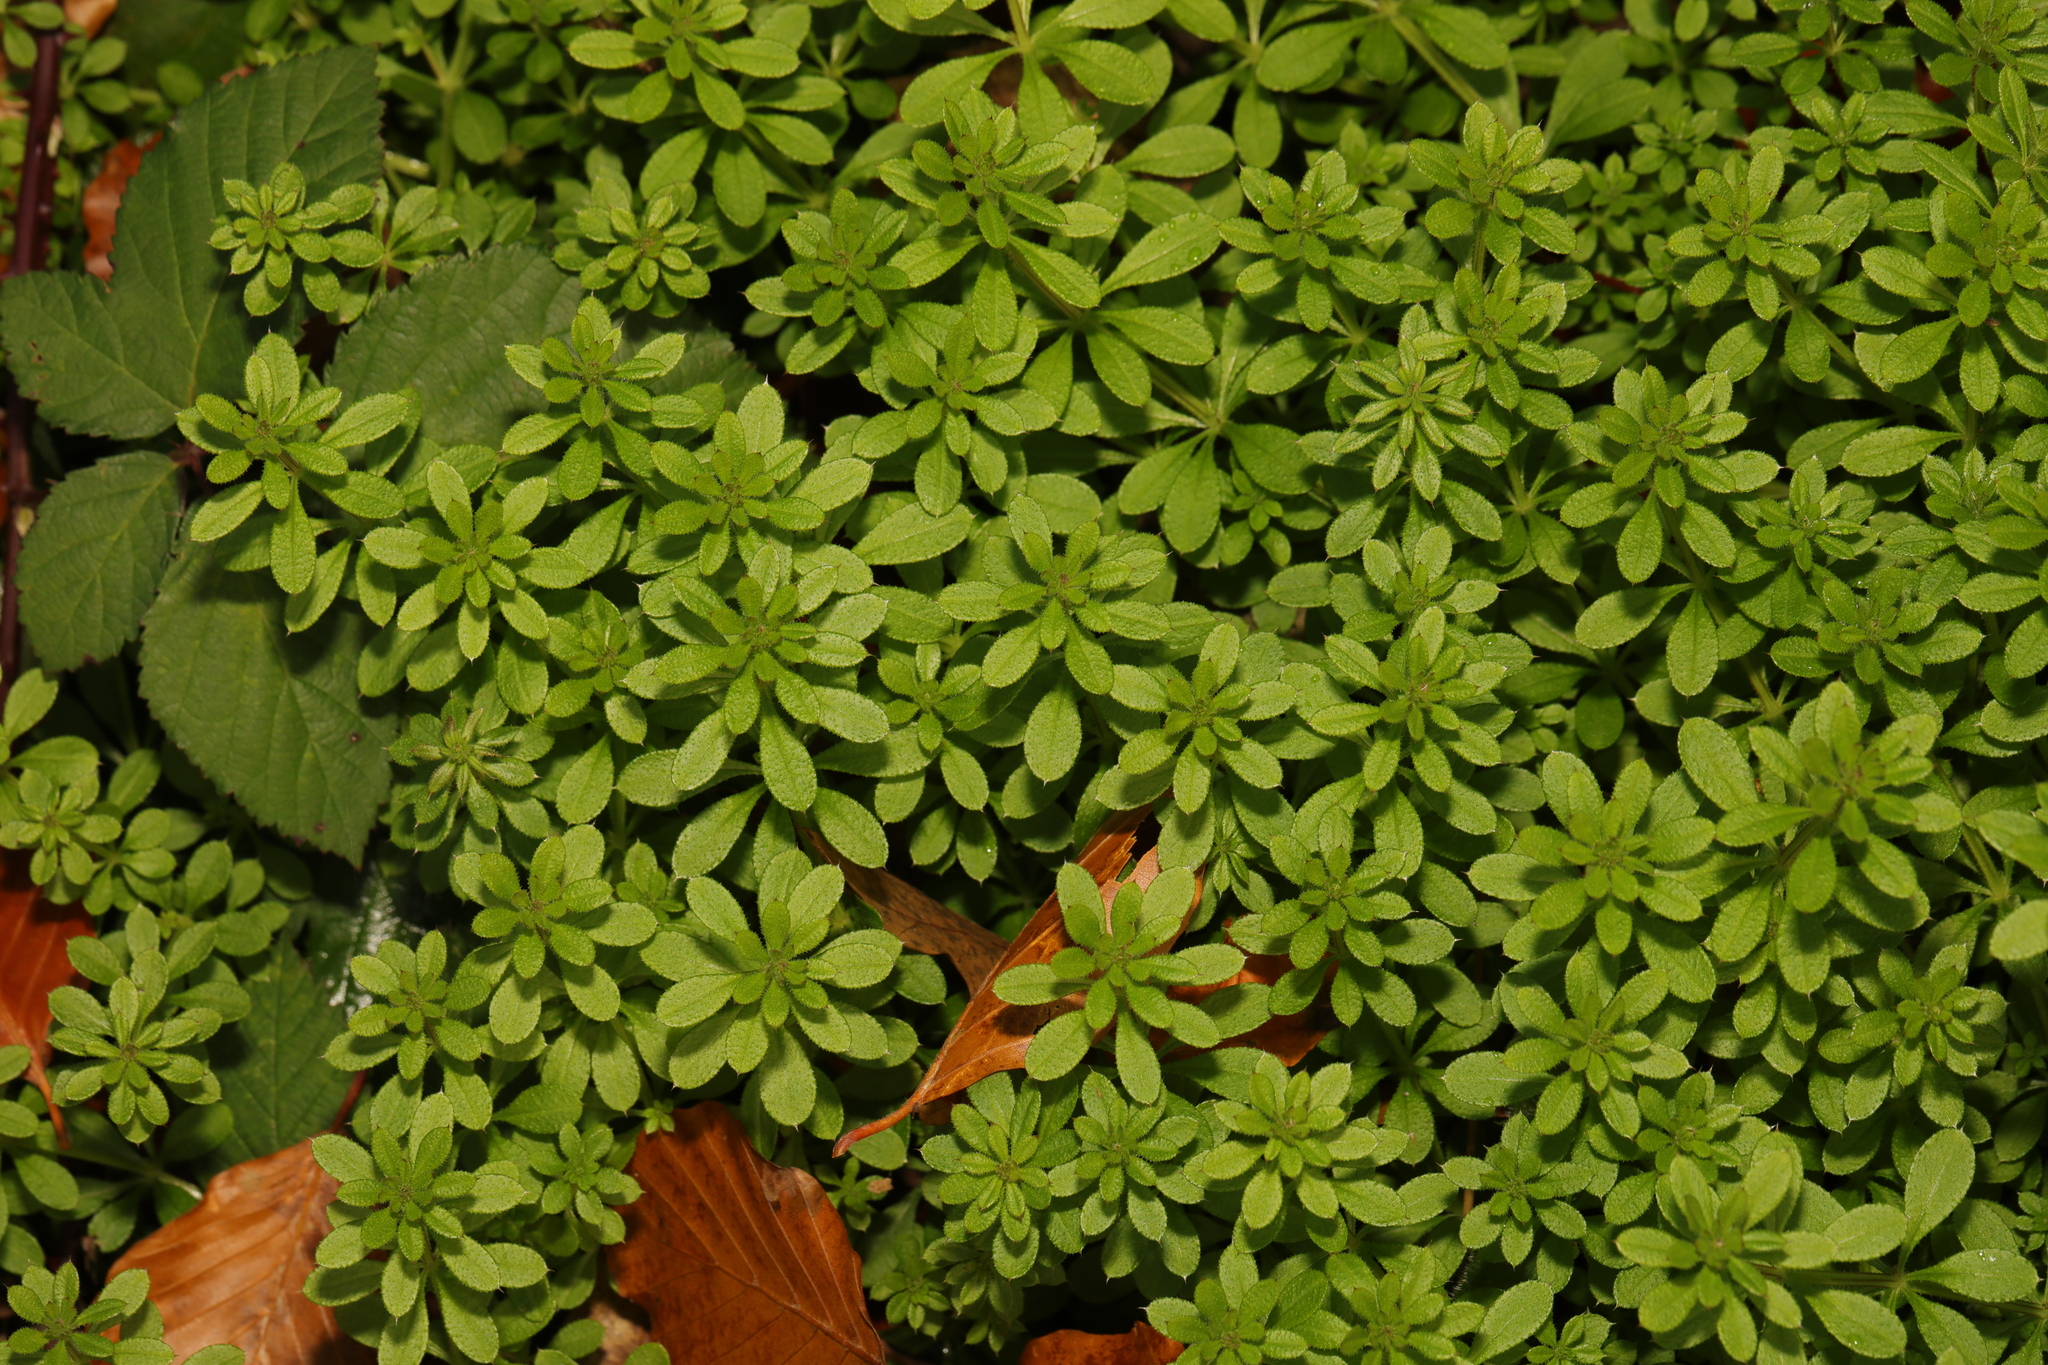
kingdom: Plantae
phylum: Tracheophyta
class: Magnoliopsida
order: Gentianales
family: Rubiaceae
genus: Galium
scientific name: Galium aparine
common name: Cleavers
